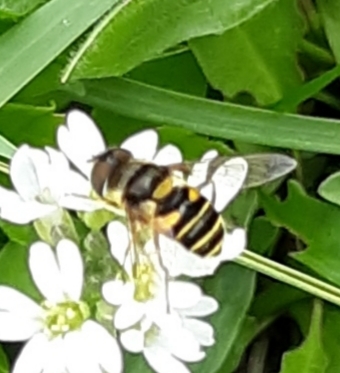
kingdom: Animalia
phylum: Arthropoda
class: Insecta
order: Diptera
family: Syrphidae
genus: Eristalis
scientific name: Eristalis transversa
